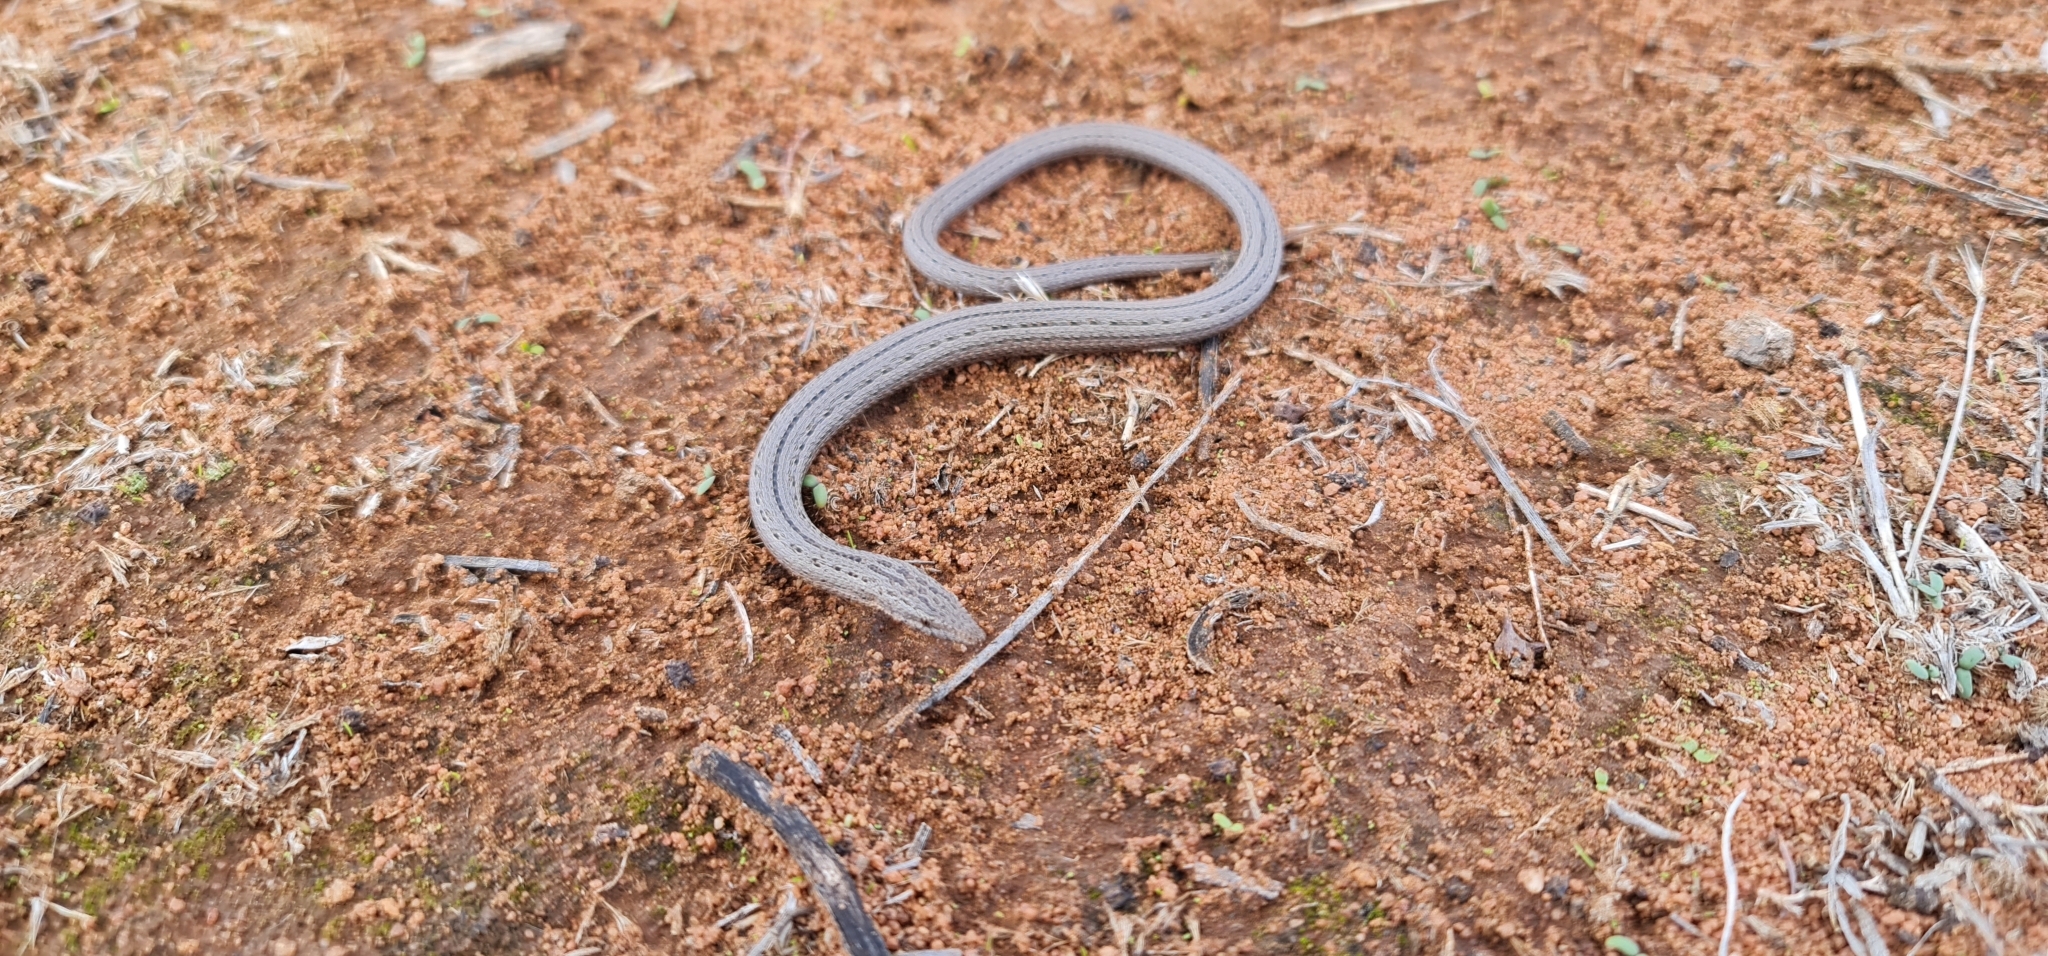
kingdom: Animalia
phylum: Chordata
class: Squamata
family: Pygopodidae
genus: Lialis
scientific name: Lialis burtonis
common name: Burton's legless lizard
